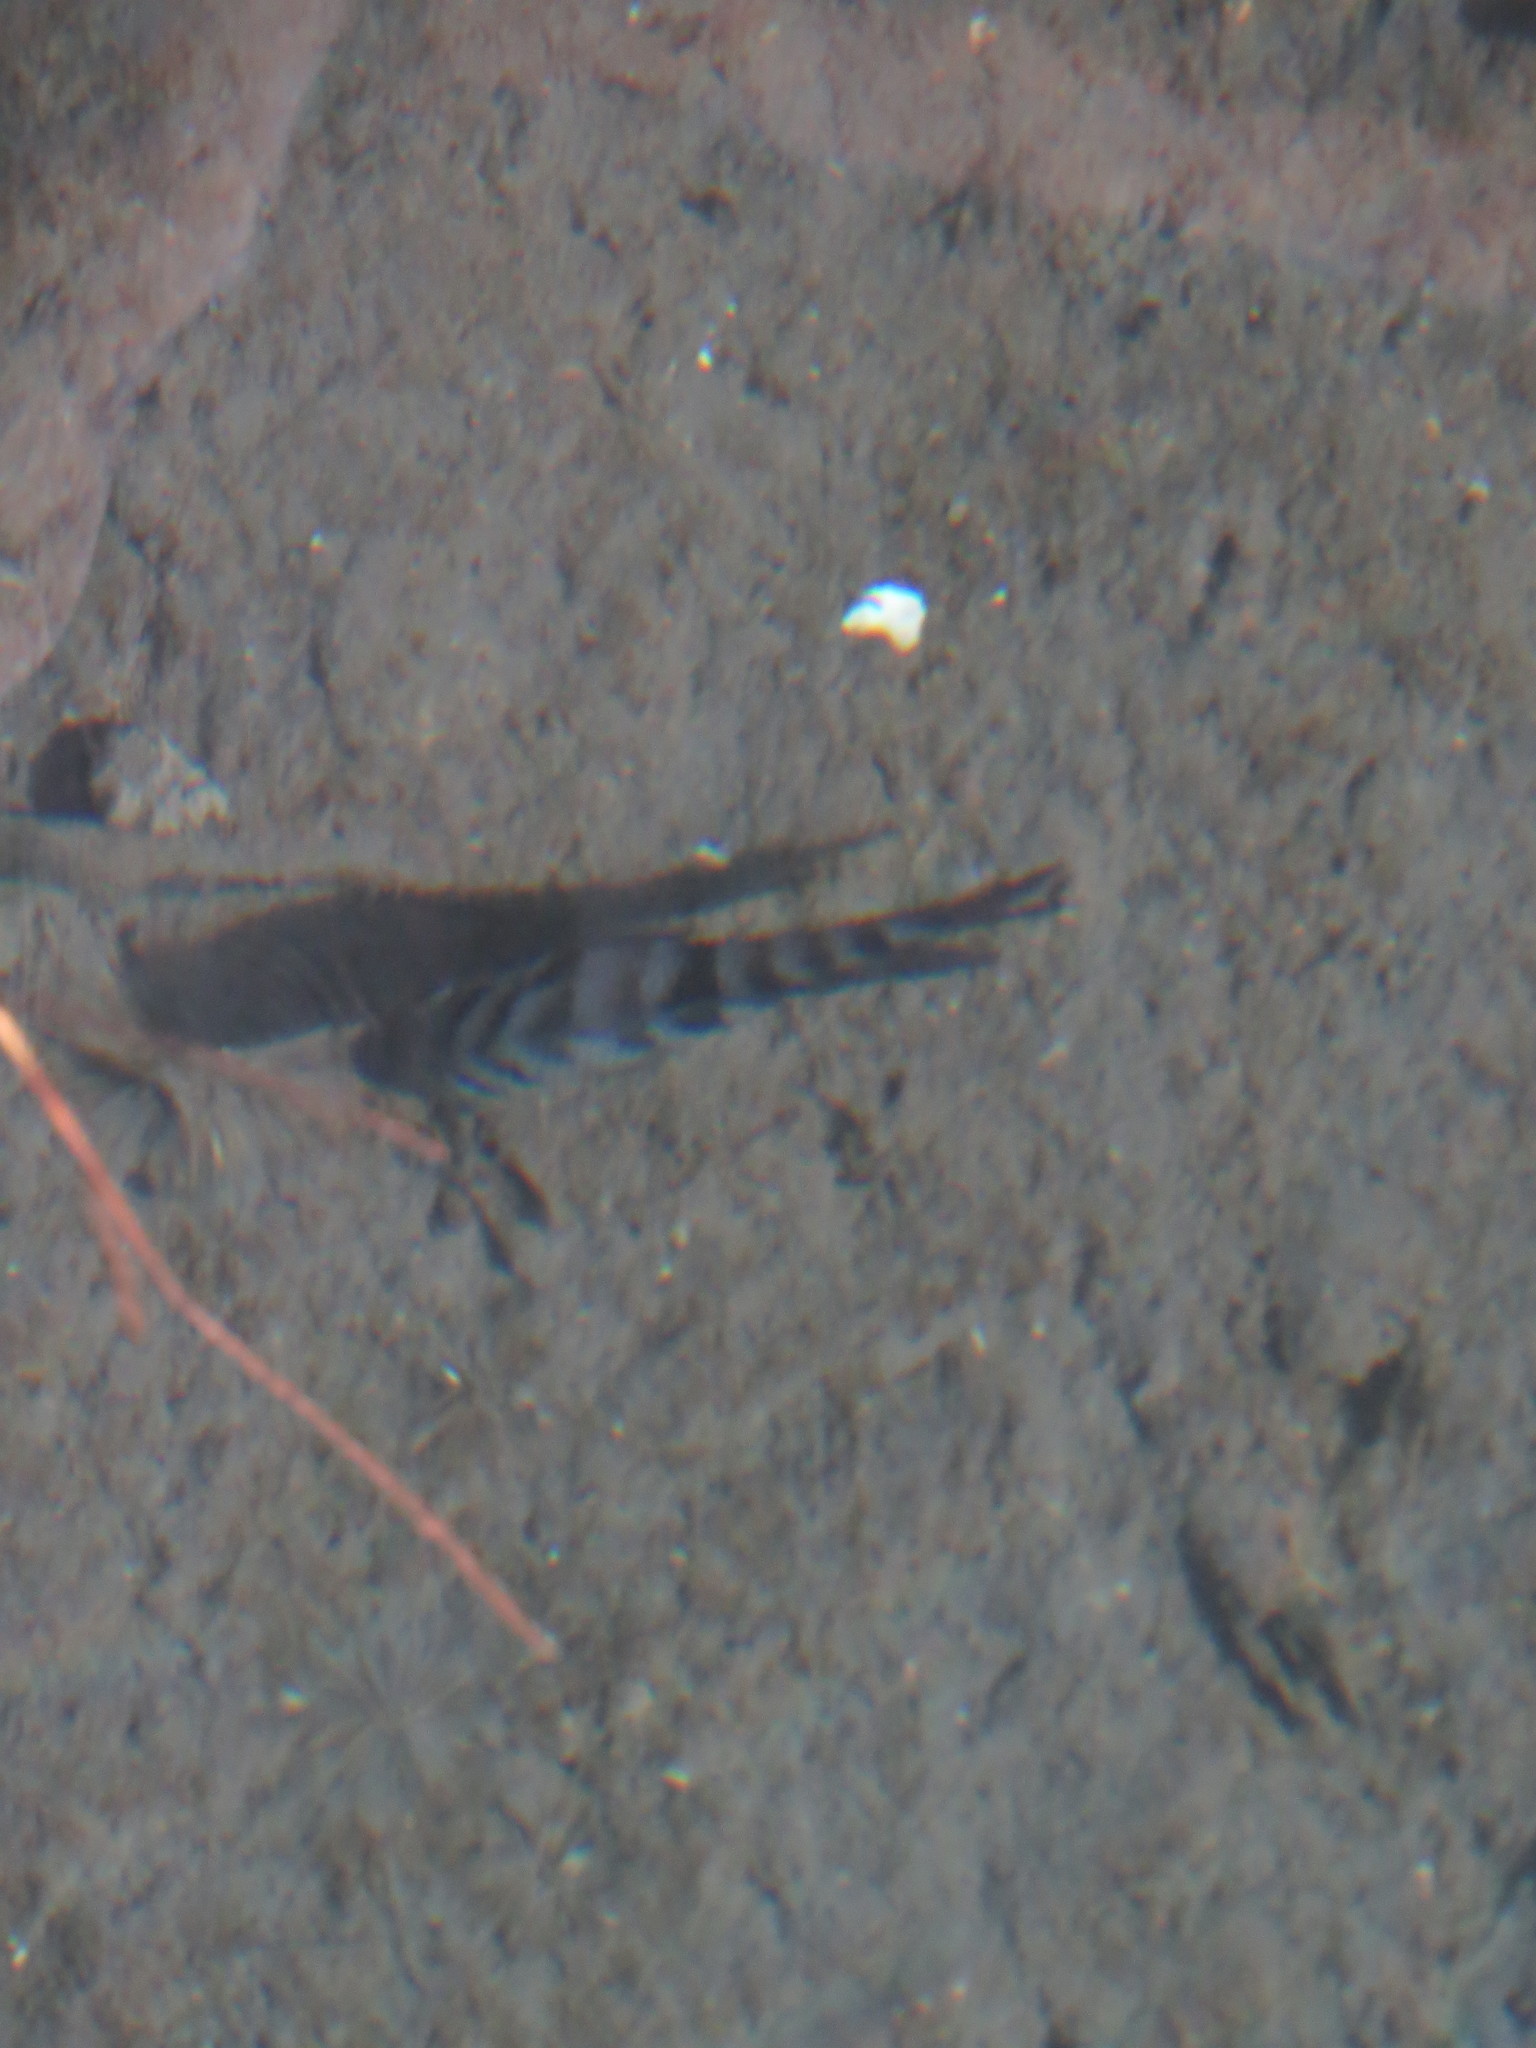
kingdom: Animalia
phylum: Chordata
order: Perciformes
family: Cichlidae
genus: Amatitlania
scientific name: Amatitlania nigrofasciata
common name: Convict cichlid
